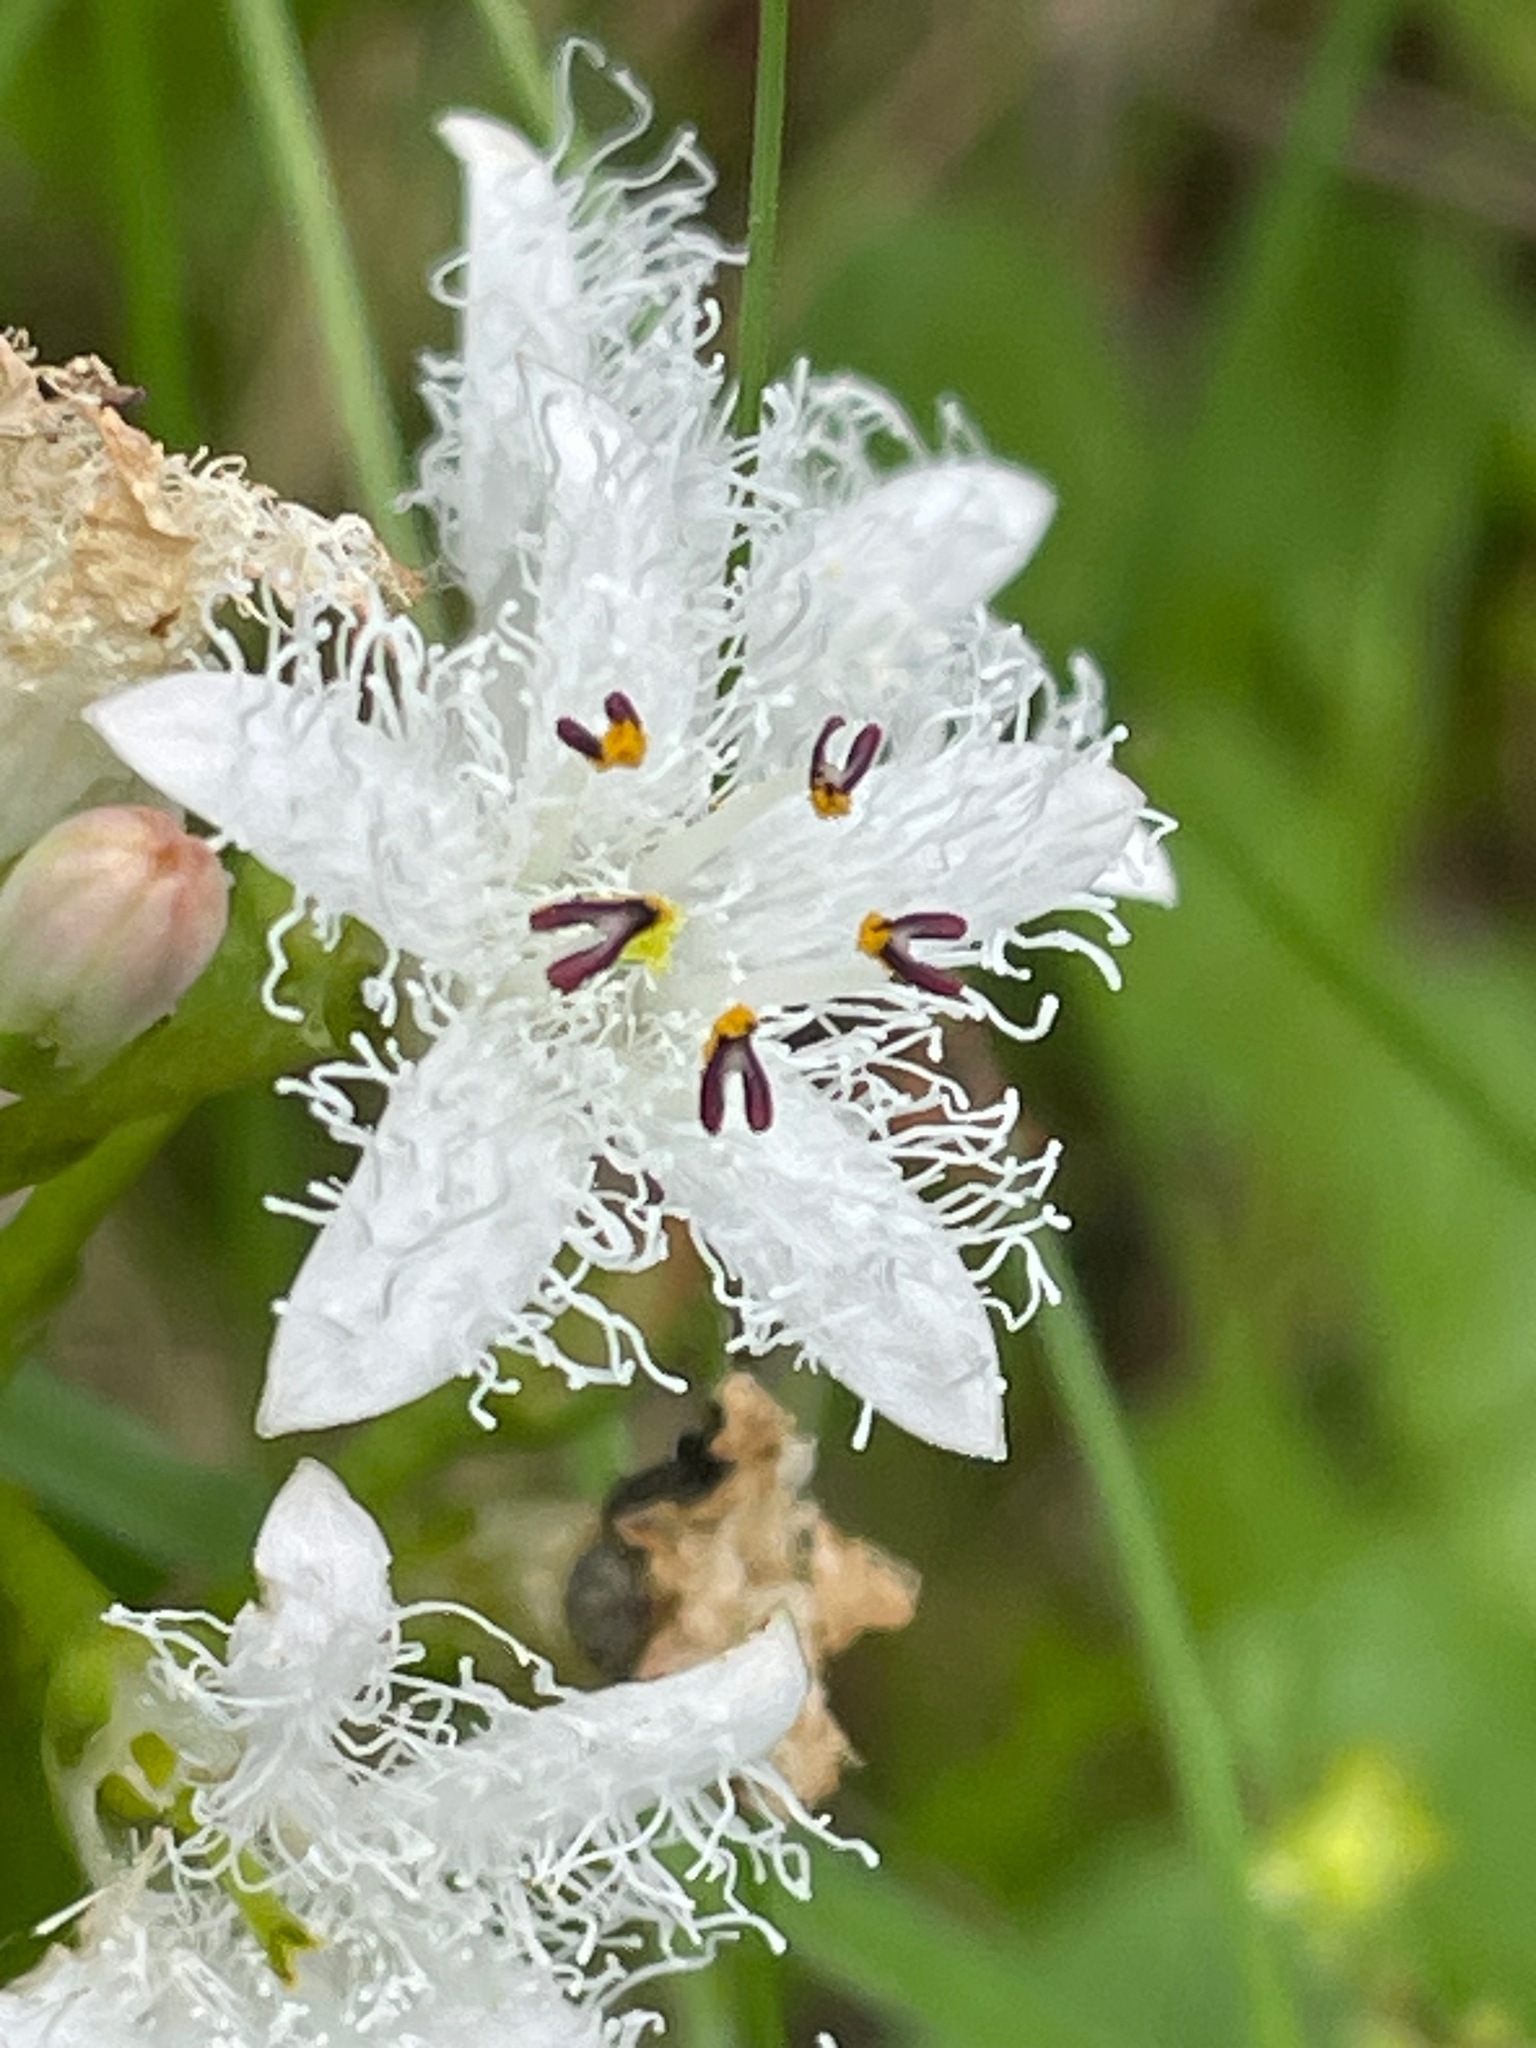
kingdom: Plantae
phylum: Tracheophyta
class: Magnoliopsida
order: Asterales
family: Menyanthaceae
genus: Menyanthes
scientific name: Menyanthes trifoliata
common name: Bogbean
